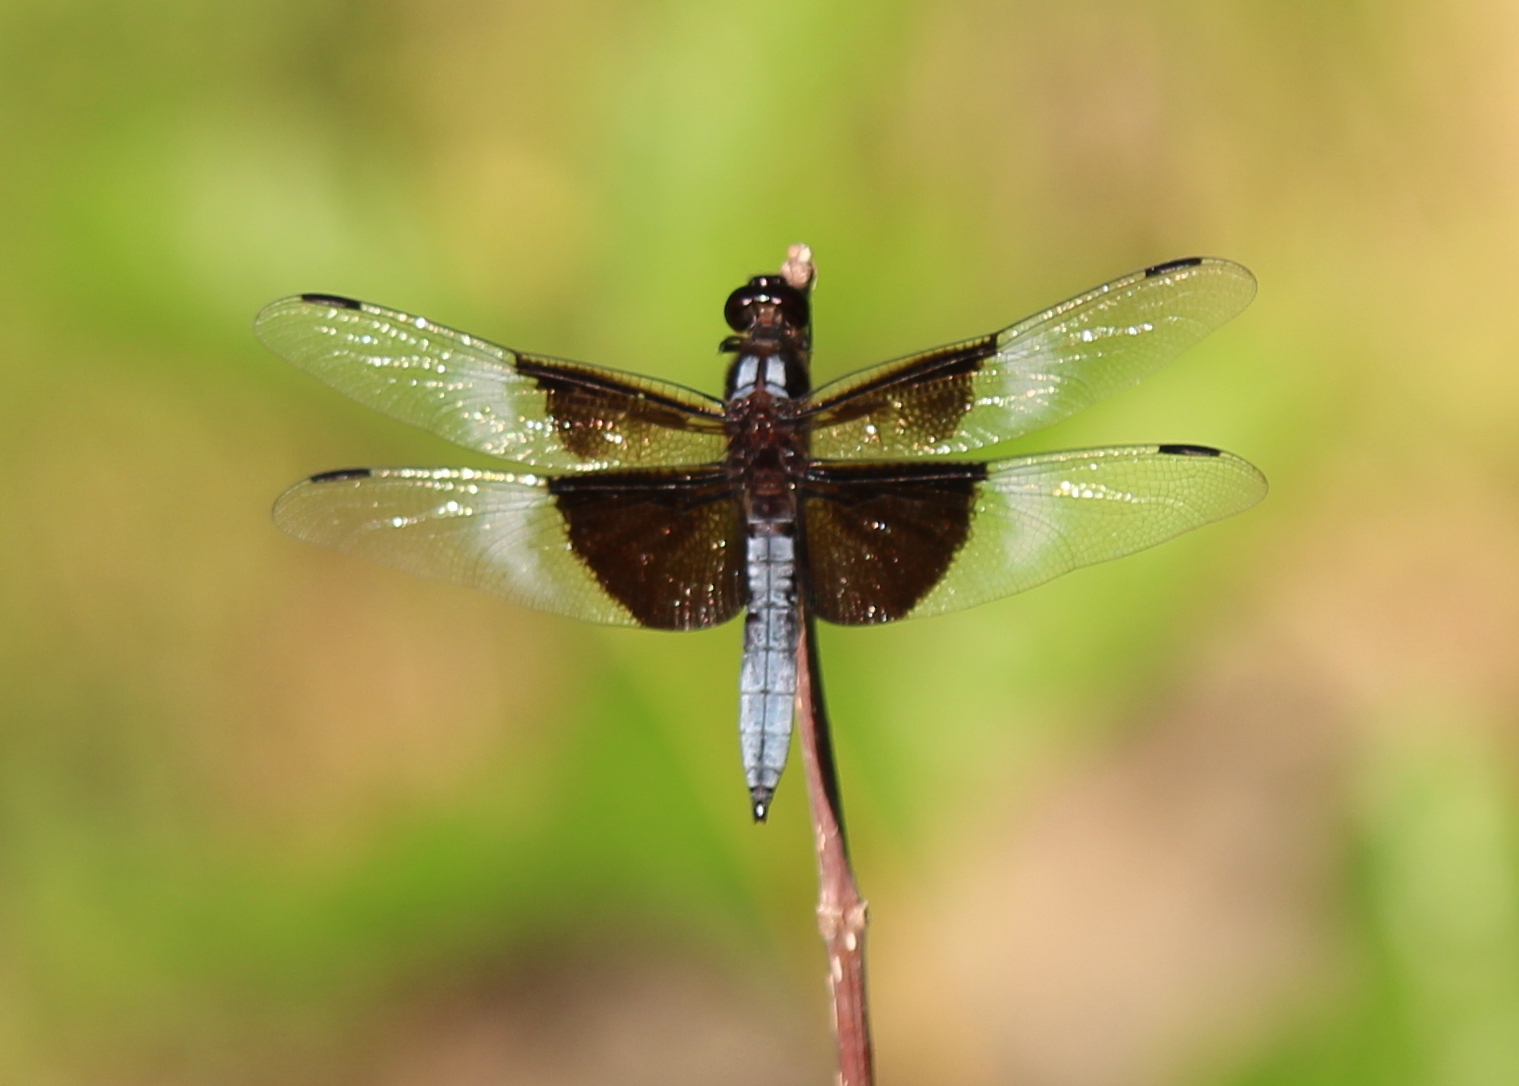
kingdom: Animalia
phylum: Arthropoda
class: Insecta
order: Odonata
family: Libellulidae
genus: Libellula
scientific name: Libellula luctuosa
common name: Widow skimmer
